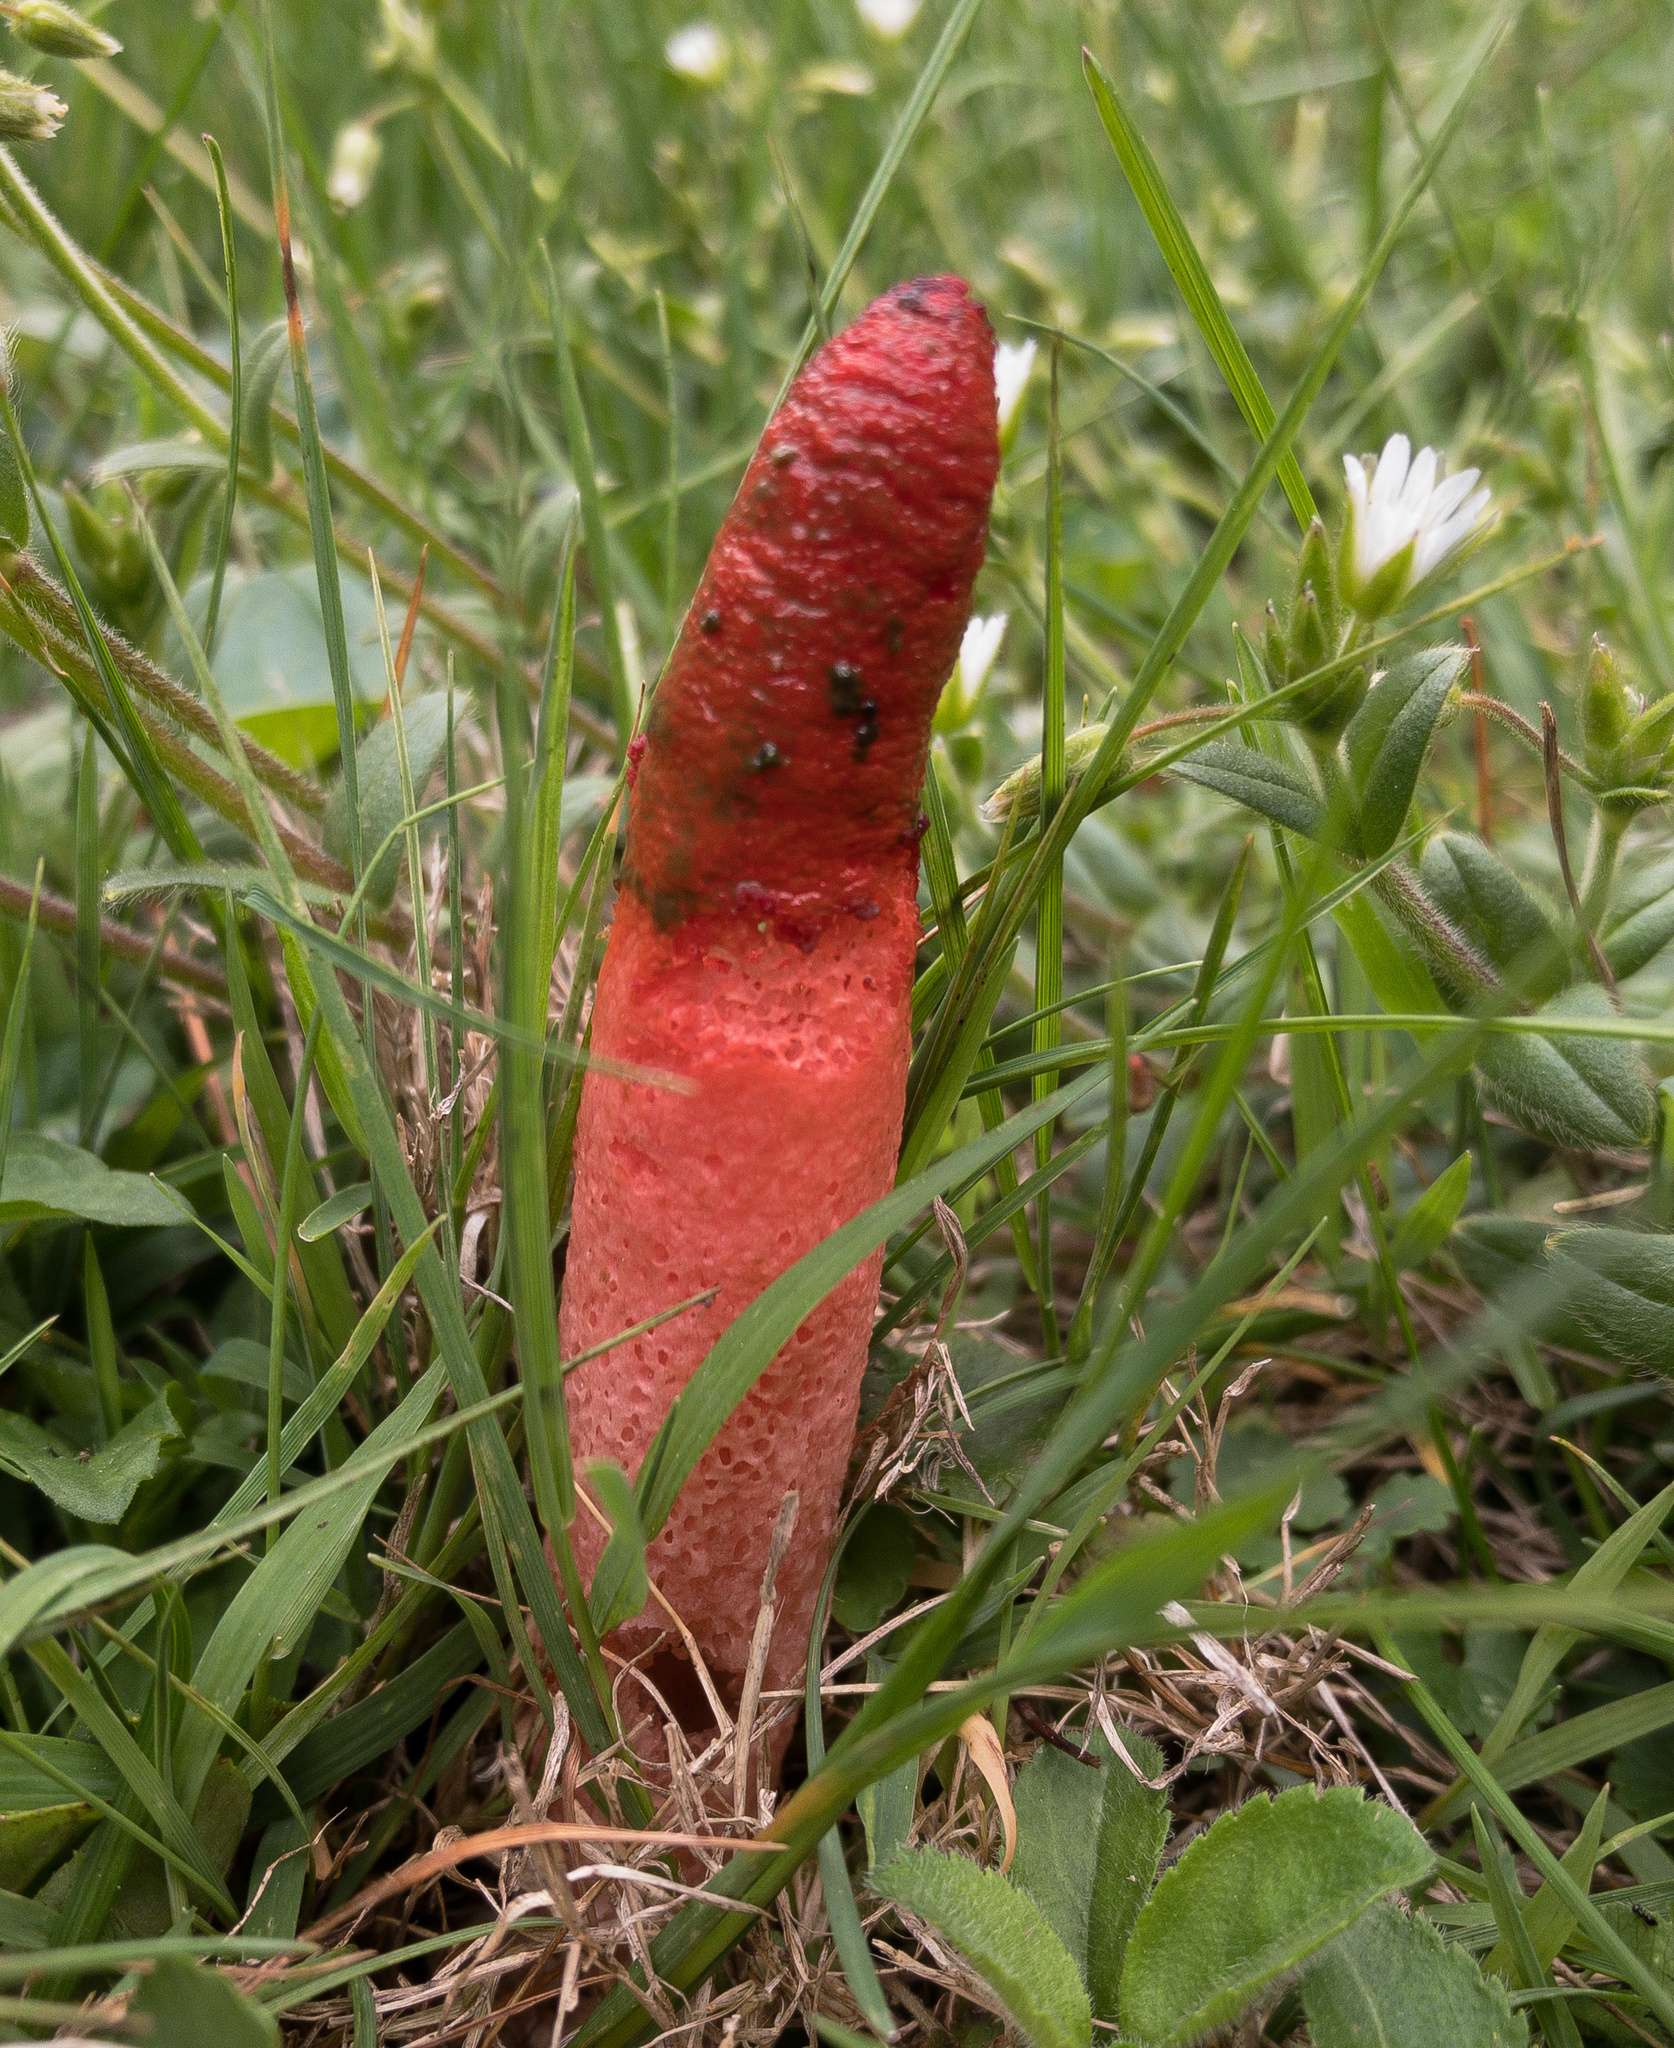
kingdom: Fungi
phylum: Basidiomycota
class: Agaricomycetes
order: Phallales
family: Phallaceae
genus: Mutinus
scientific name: Mutinus elegans
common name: Devil's dipstick
